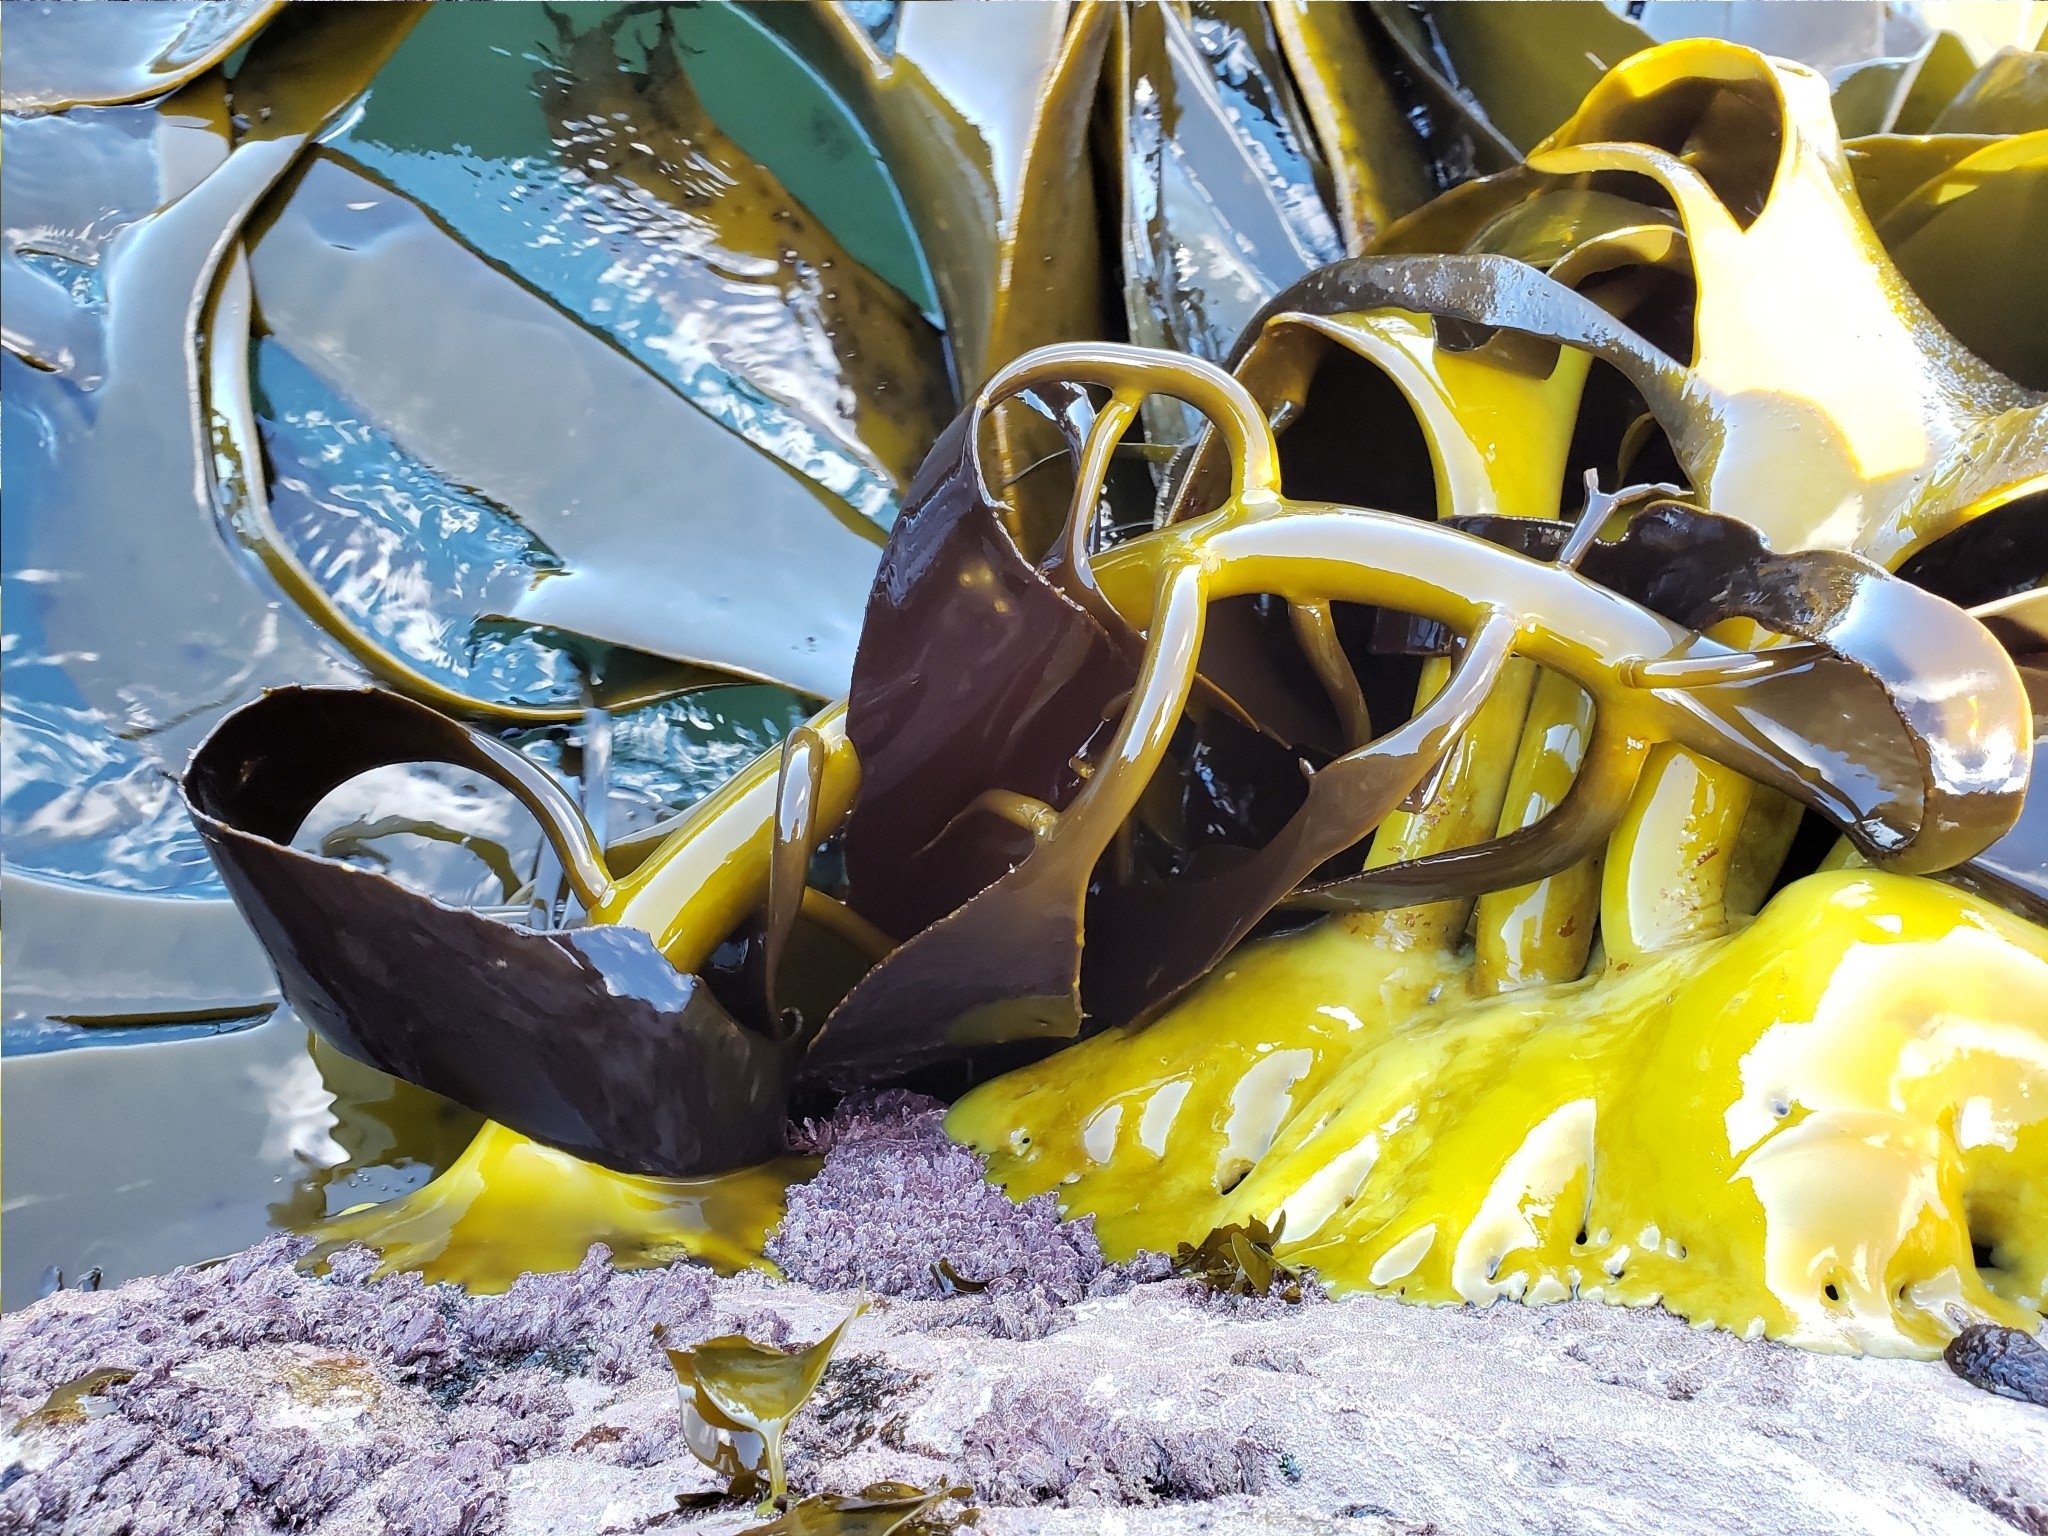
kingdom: Chromista
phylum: Ochrophyta
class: Phaeophyceae
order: Fucales
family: Durvillaeaceae
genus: Durvillaea
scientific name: Durvillaea willana
